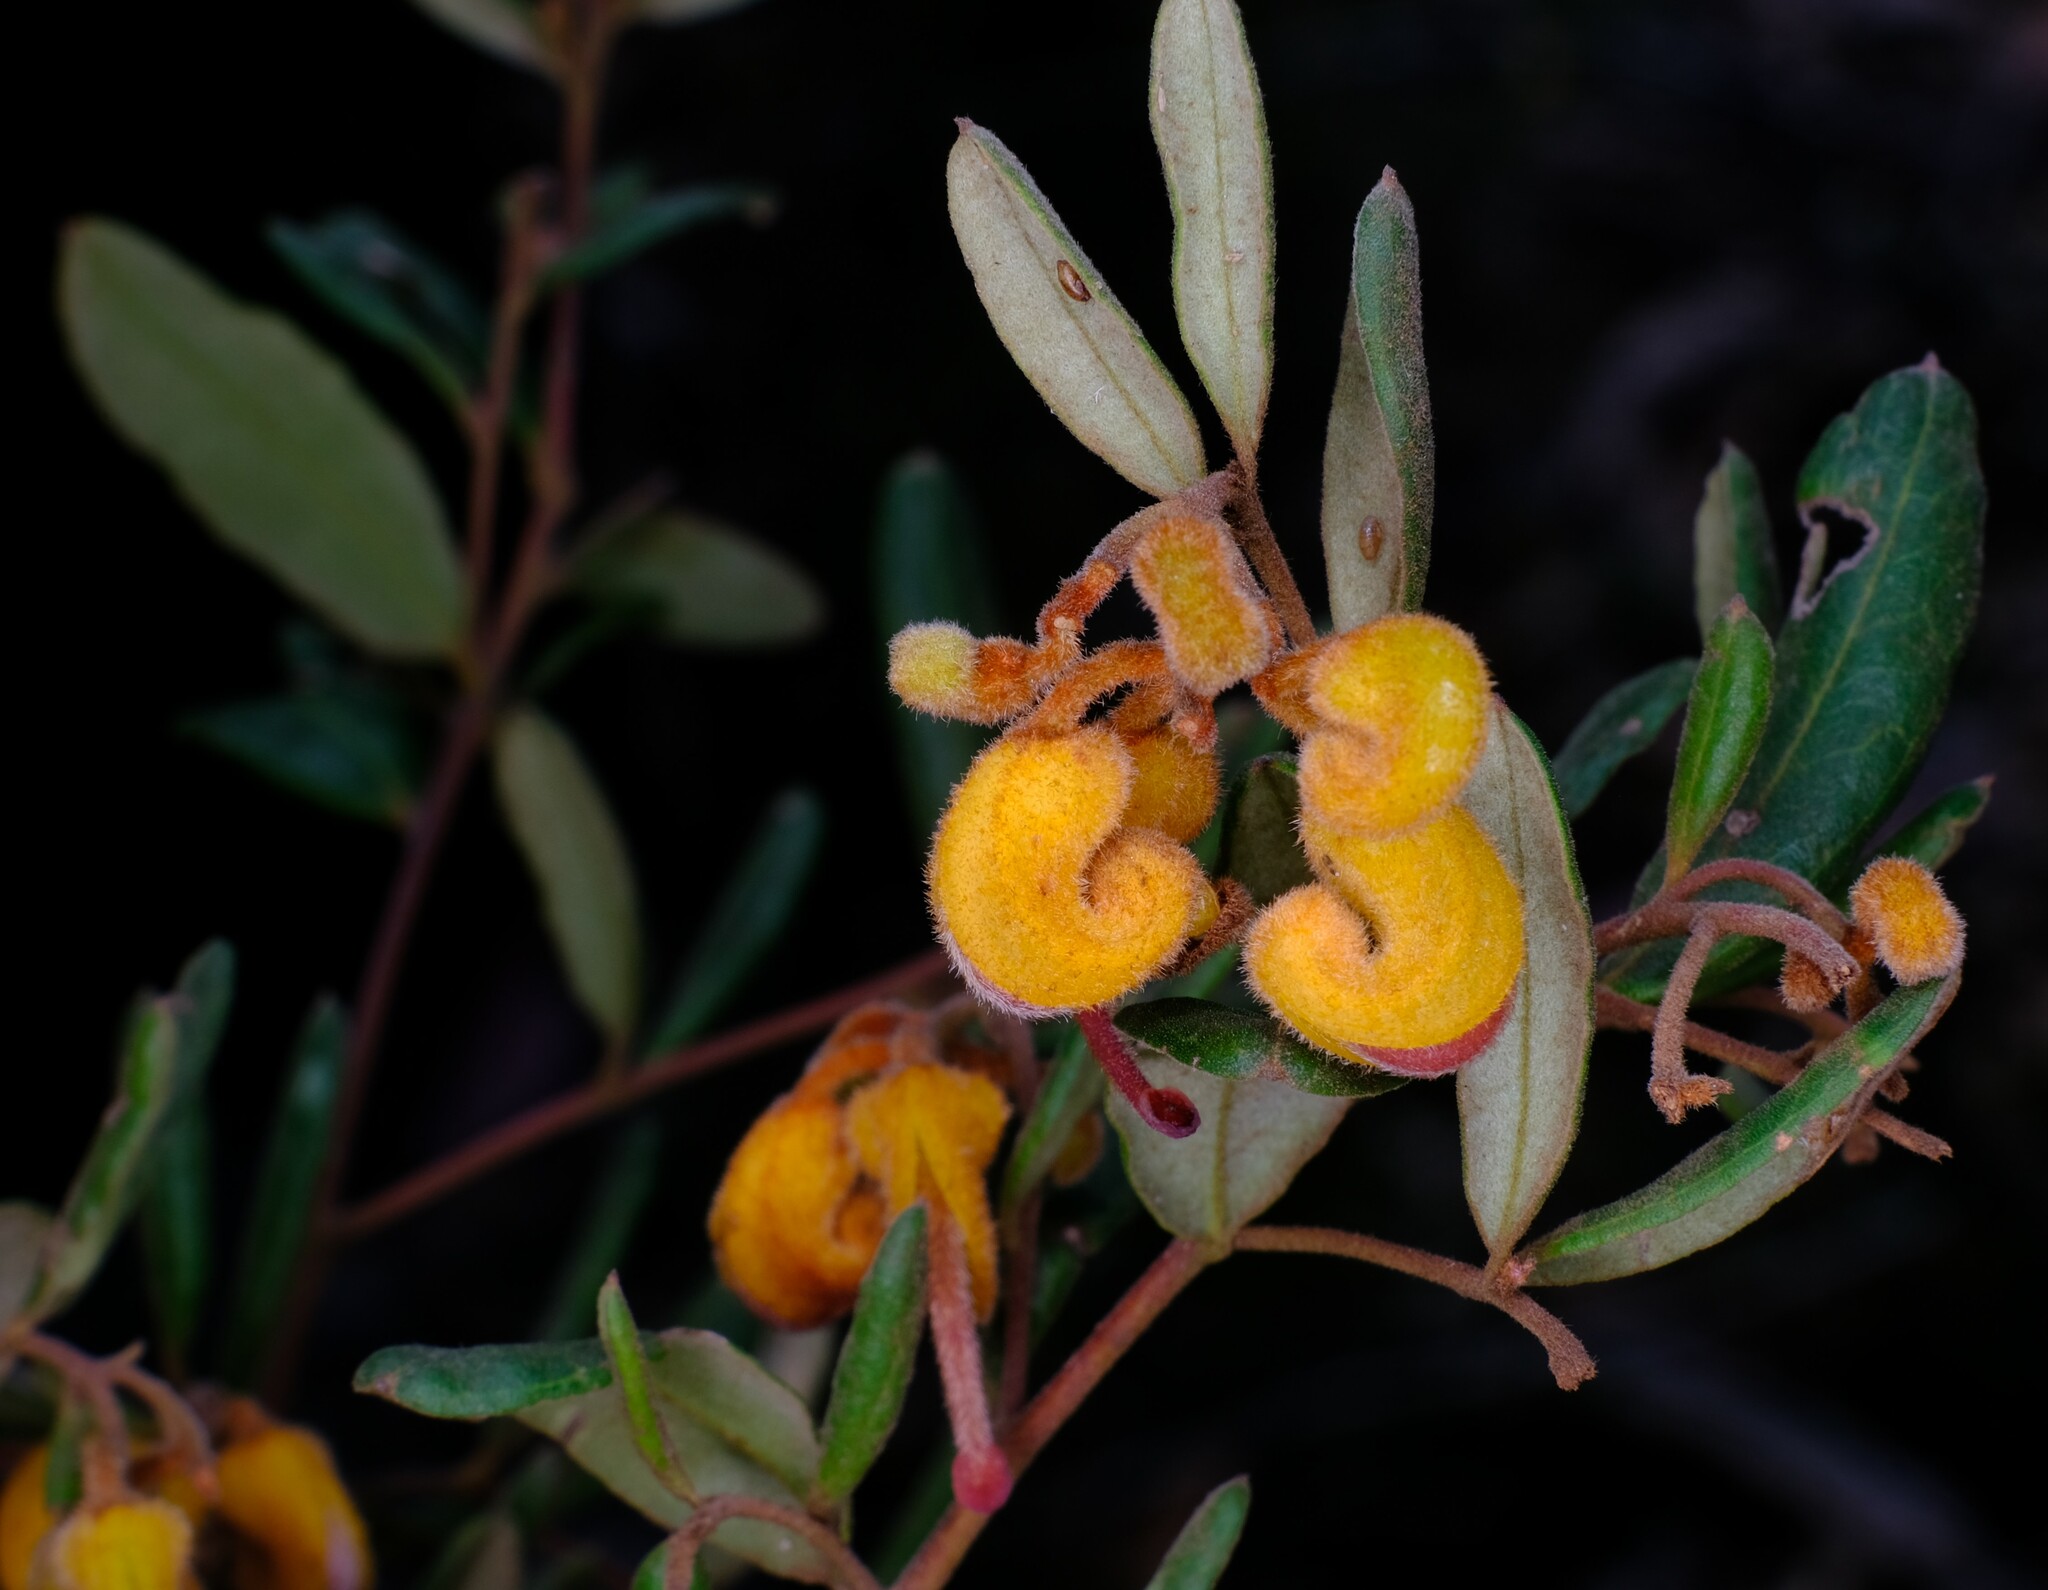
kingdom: Plantae
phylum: Tracheophyta
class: Magnoliopsida
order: Proteales
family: Proteaceae
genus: Grevillea
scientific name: Grevillea chrysophaea
